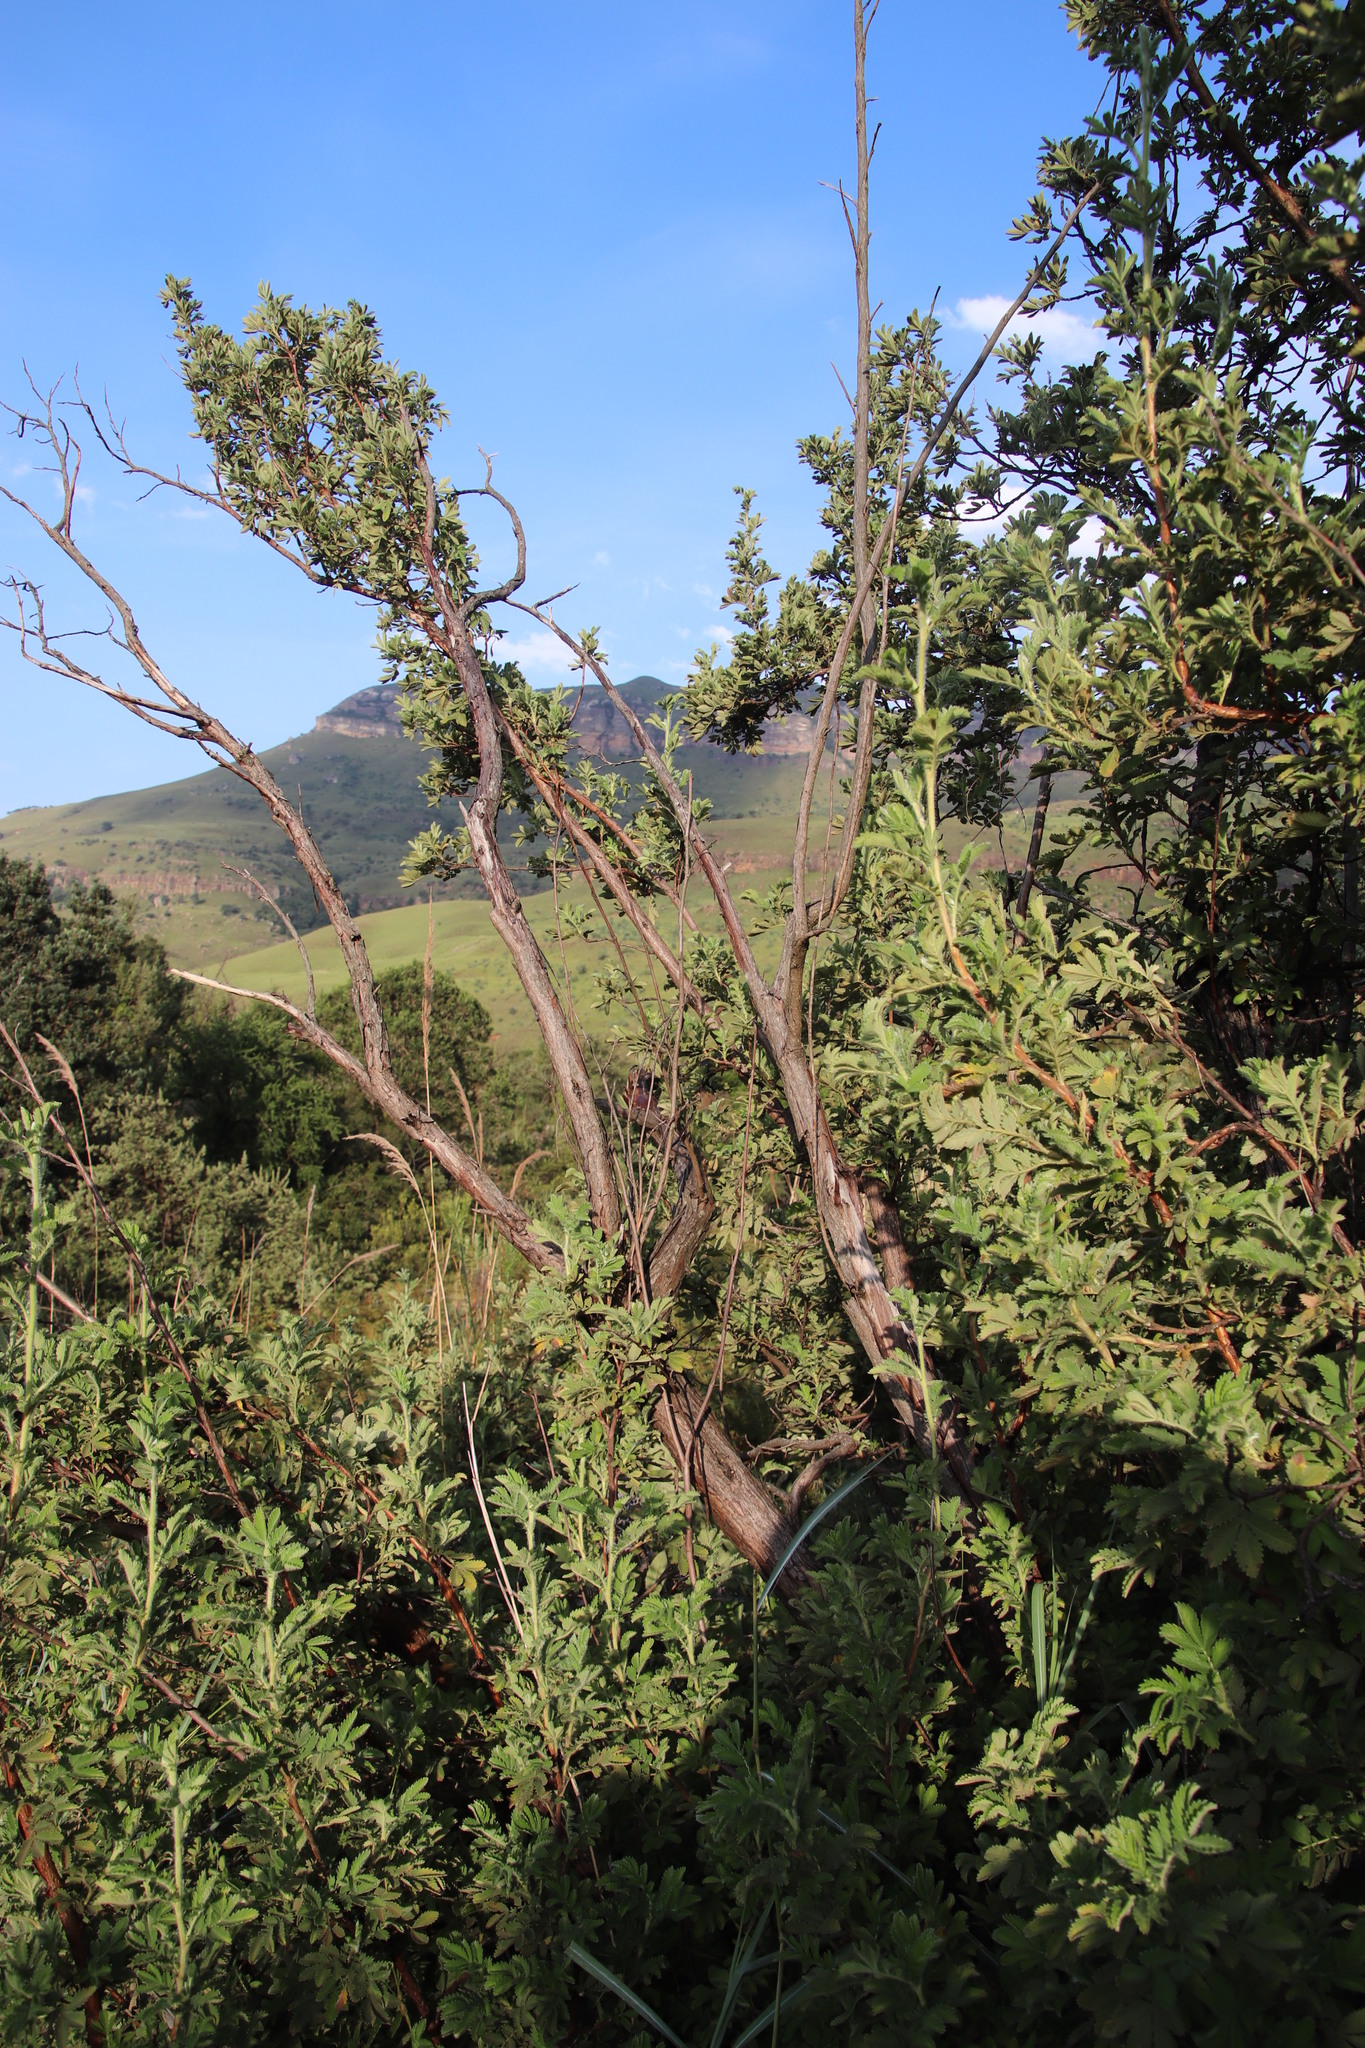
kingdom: Plantae
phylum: Tracheophyta
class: Magnoliopsida
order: Rosales
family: Rosaceae
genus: Leucosidea
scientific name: Leucosidea sericea
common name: Oldwood
